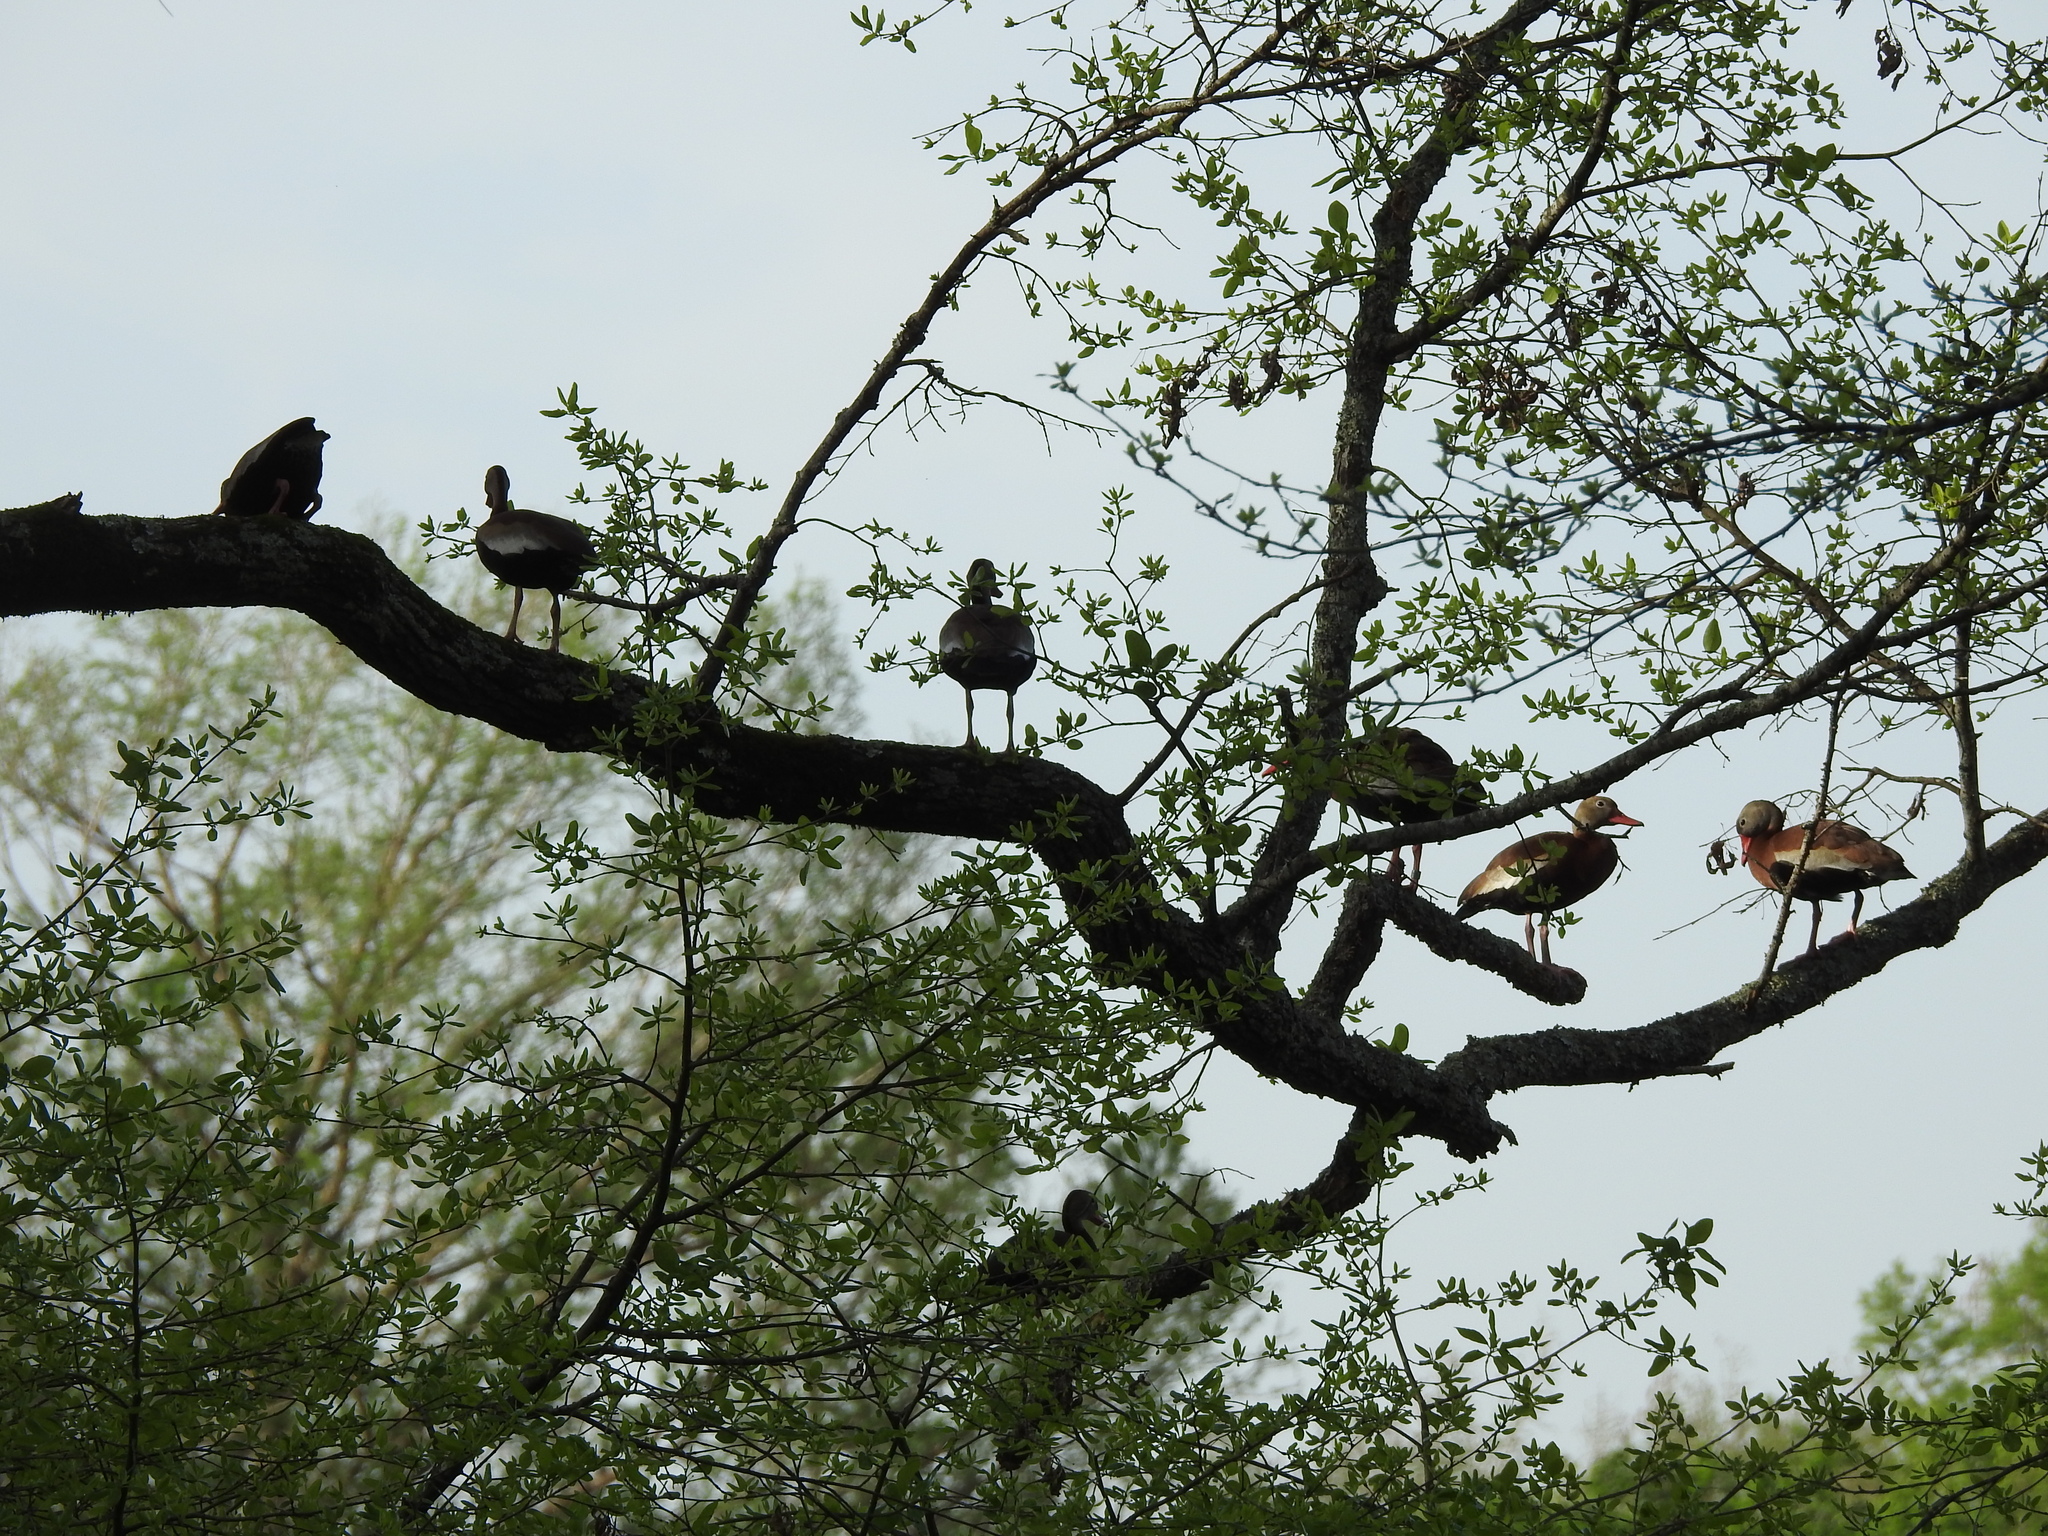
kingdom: Animalia
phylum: Chordata
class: Aves
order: Anseriformes
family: Anatidae
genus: Dendrocygna
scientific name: Dendrocygna autumnalis
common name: Black-bellied whistling duck
